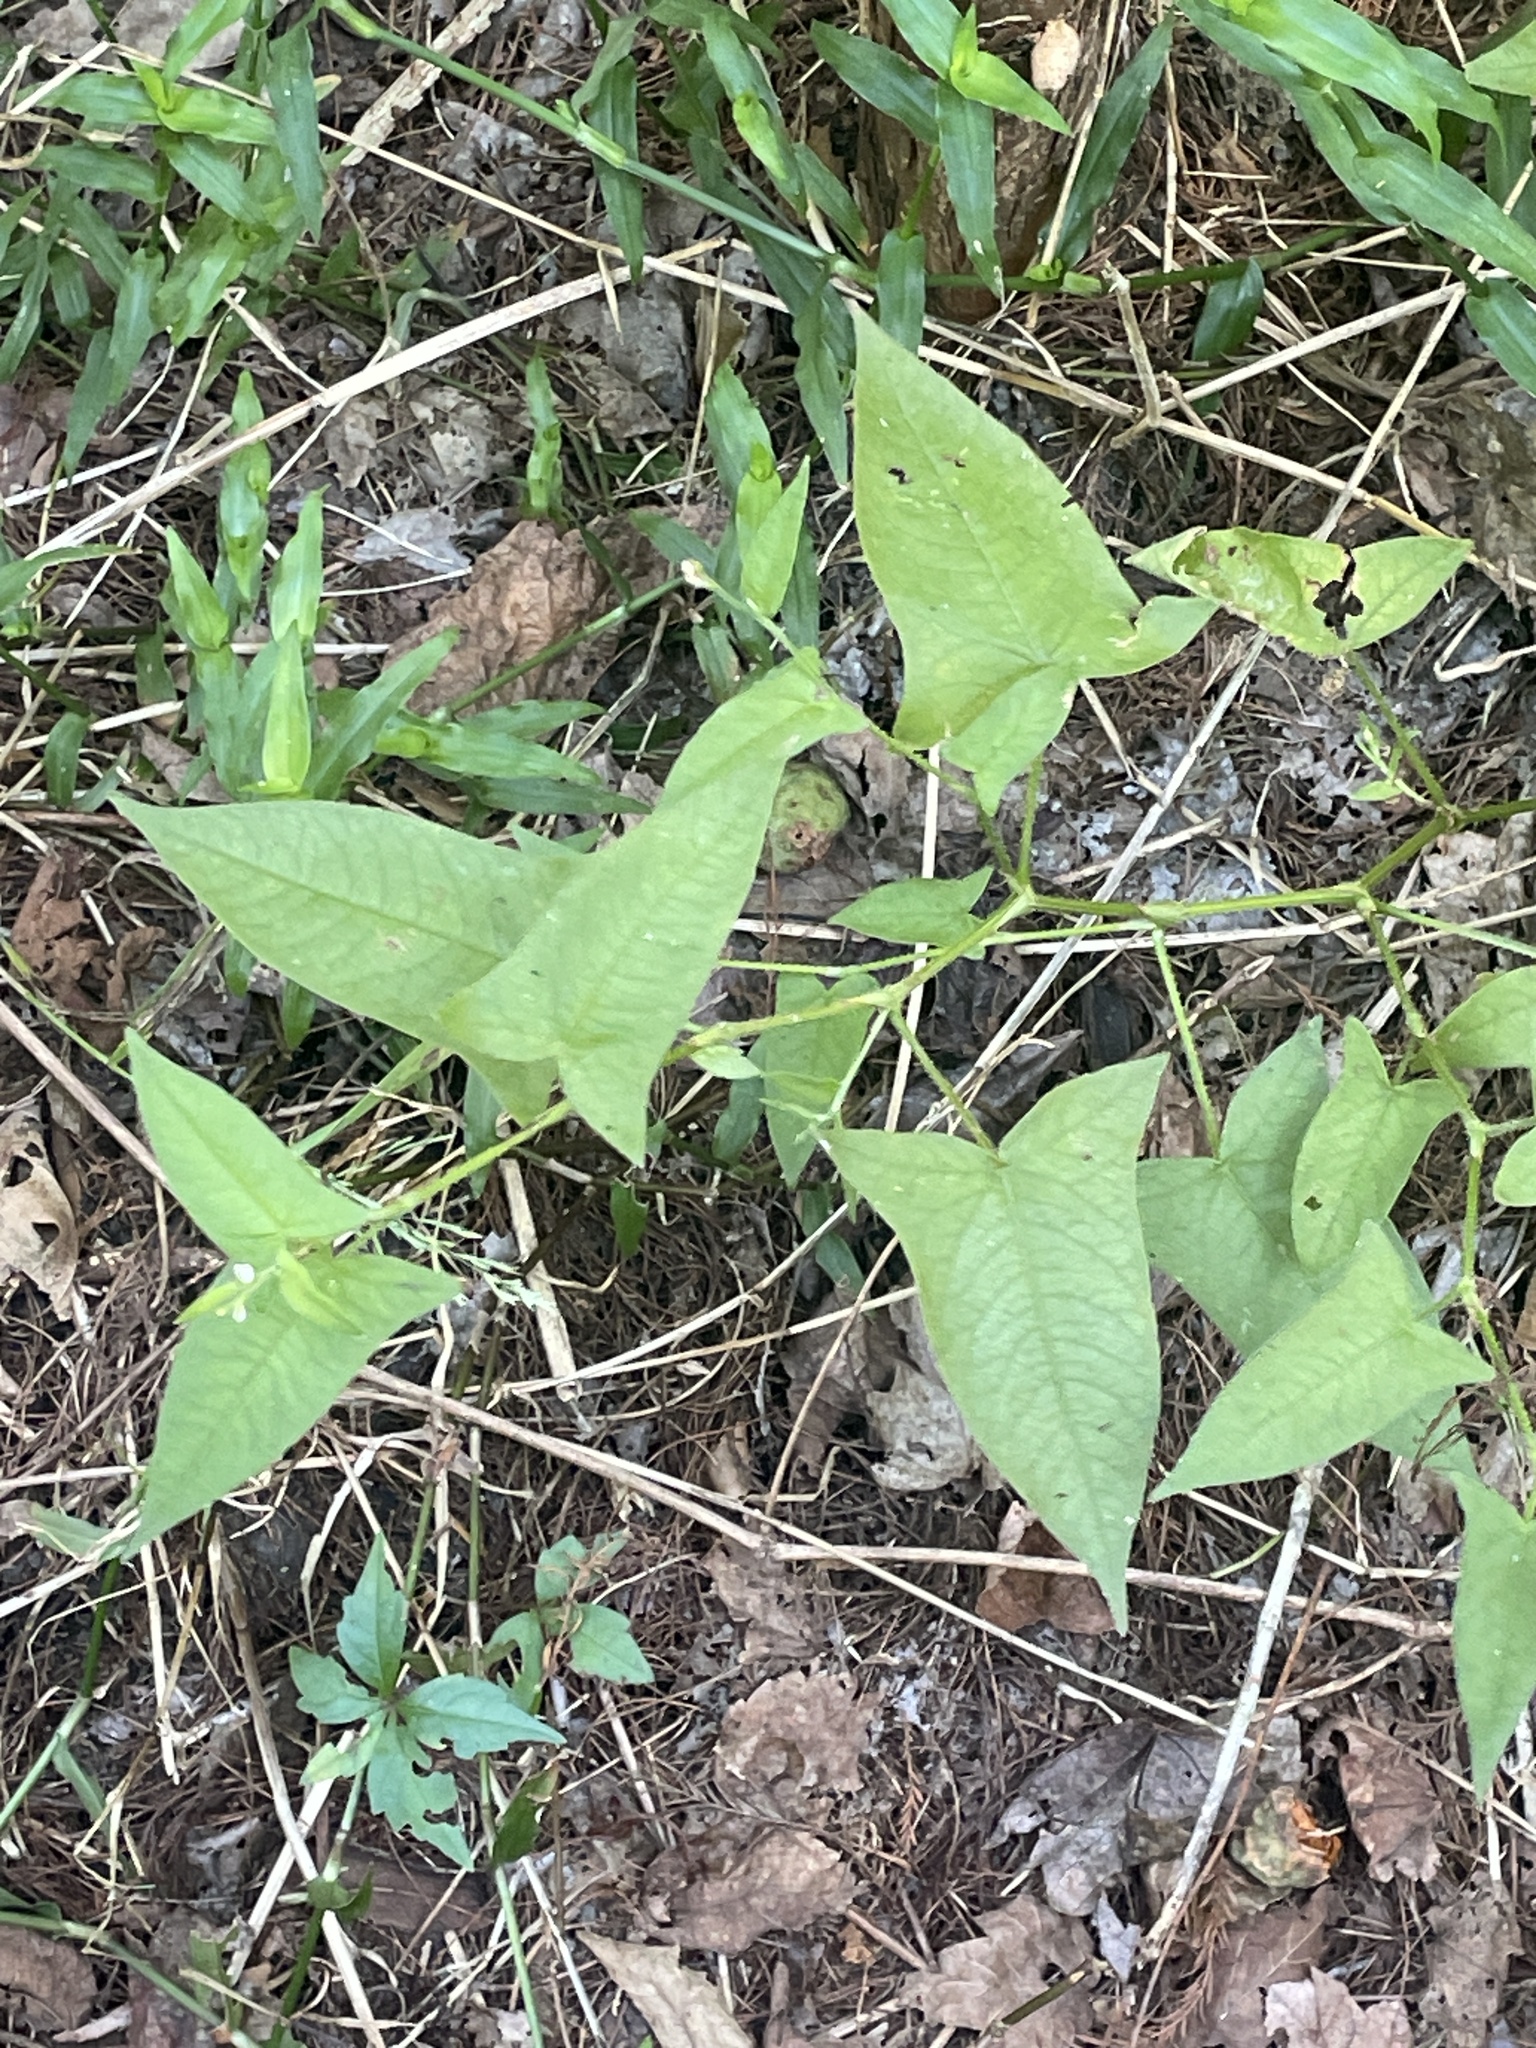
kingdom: Plantae
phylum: Tracheophyta
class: Magnoliopsida
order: Caryophyllales
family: Polygonaceae
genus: Persicaria
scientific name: Persicaria arifolia
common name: Halberd-leaved tear-thumb
